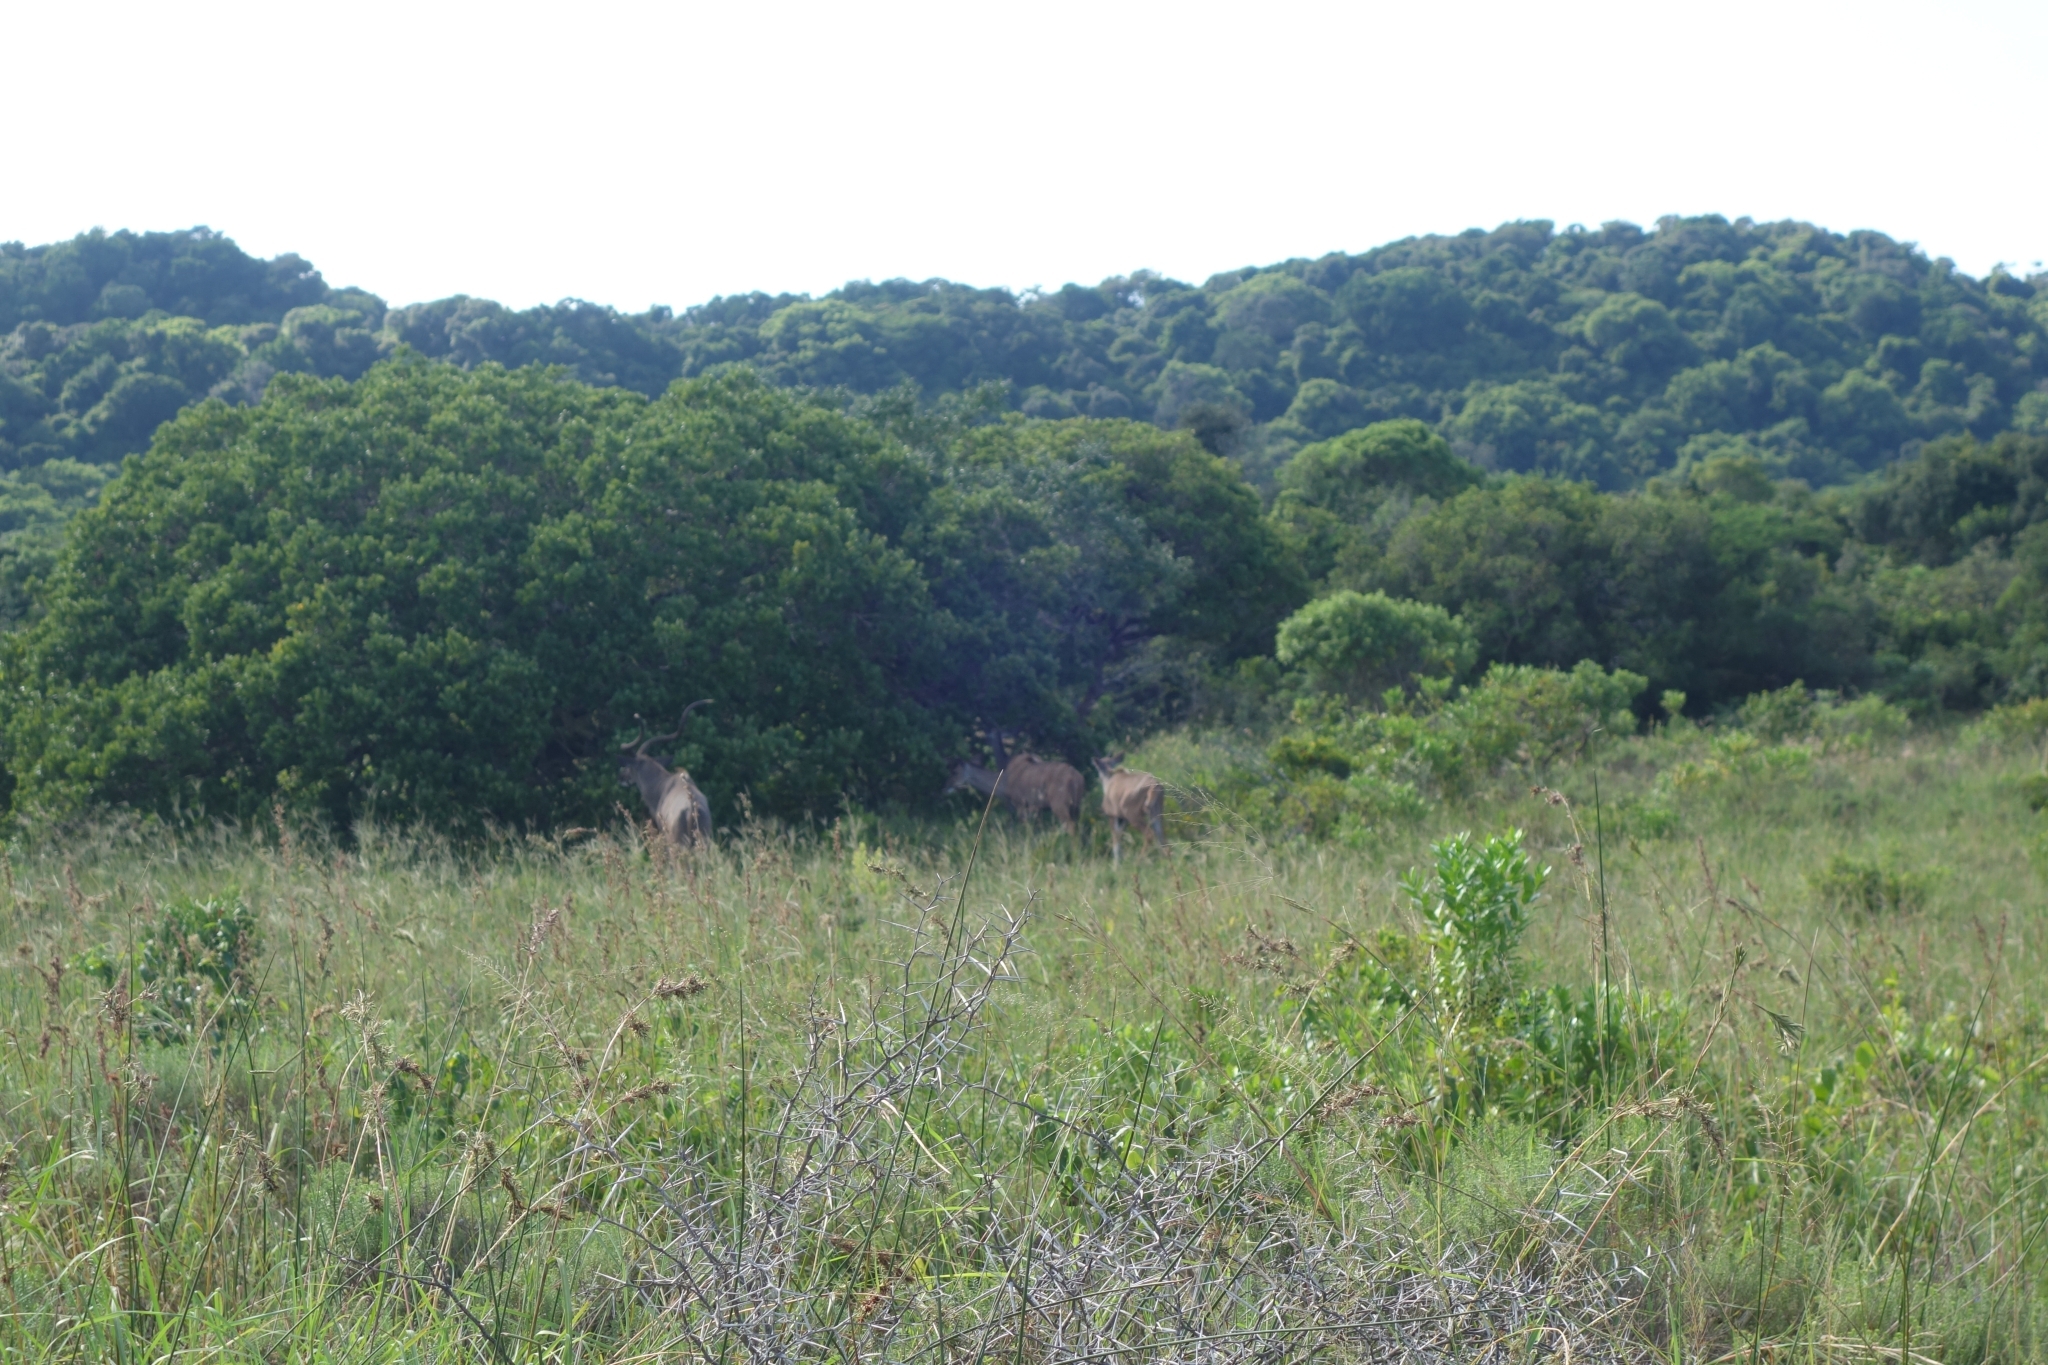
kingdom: Animalia
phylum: Chordata
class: Mammalia
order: Artiodactyla
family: Bovidae
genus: Tragelaphus
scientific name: Tragelaphus strepsiceros
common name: Greater kudu
